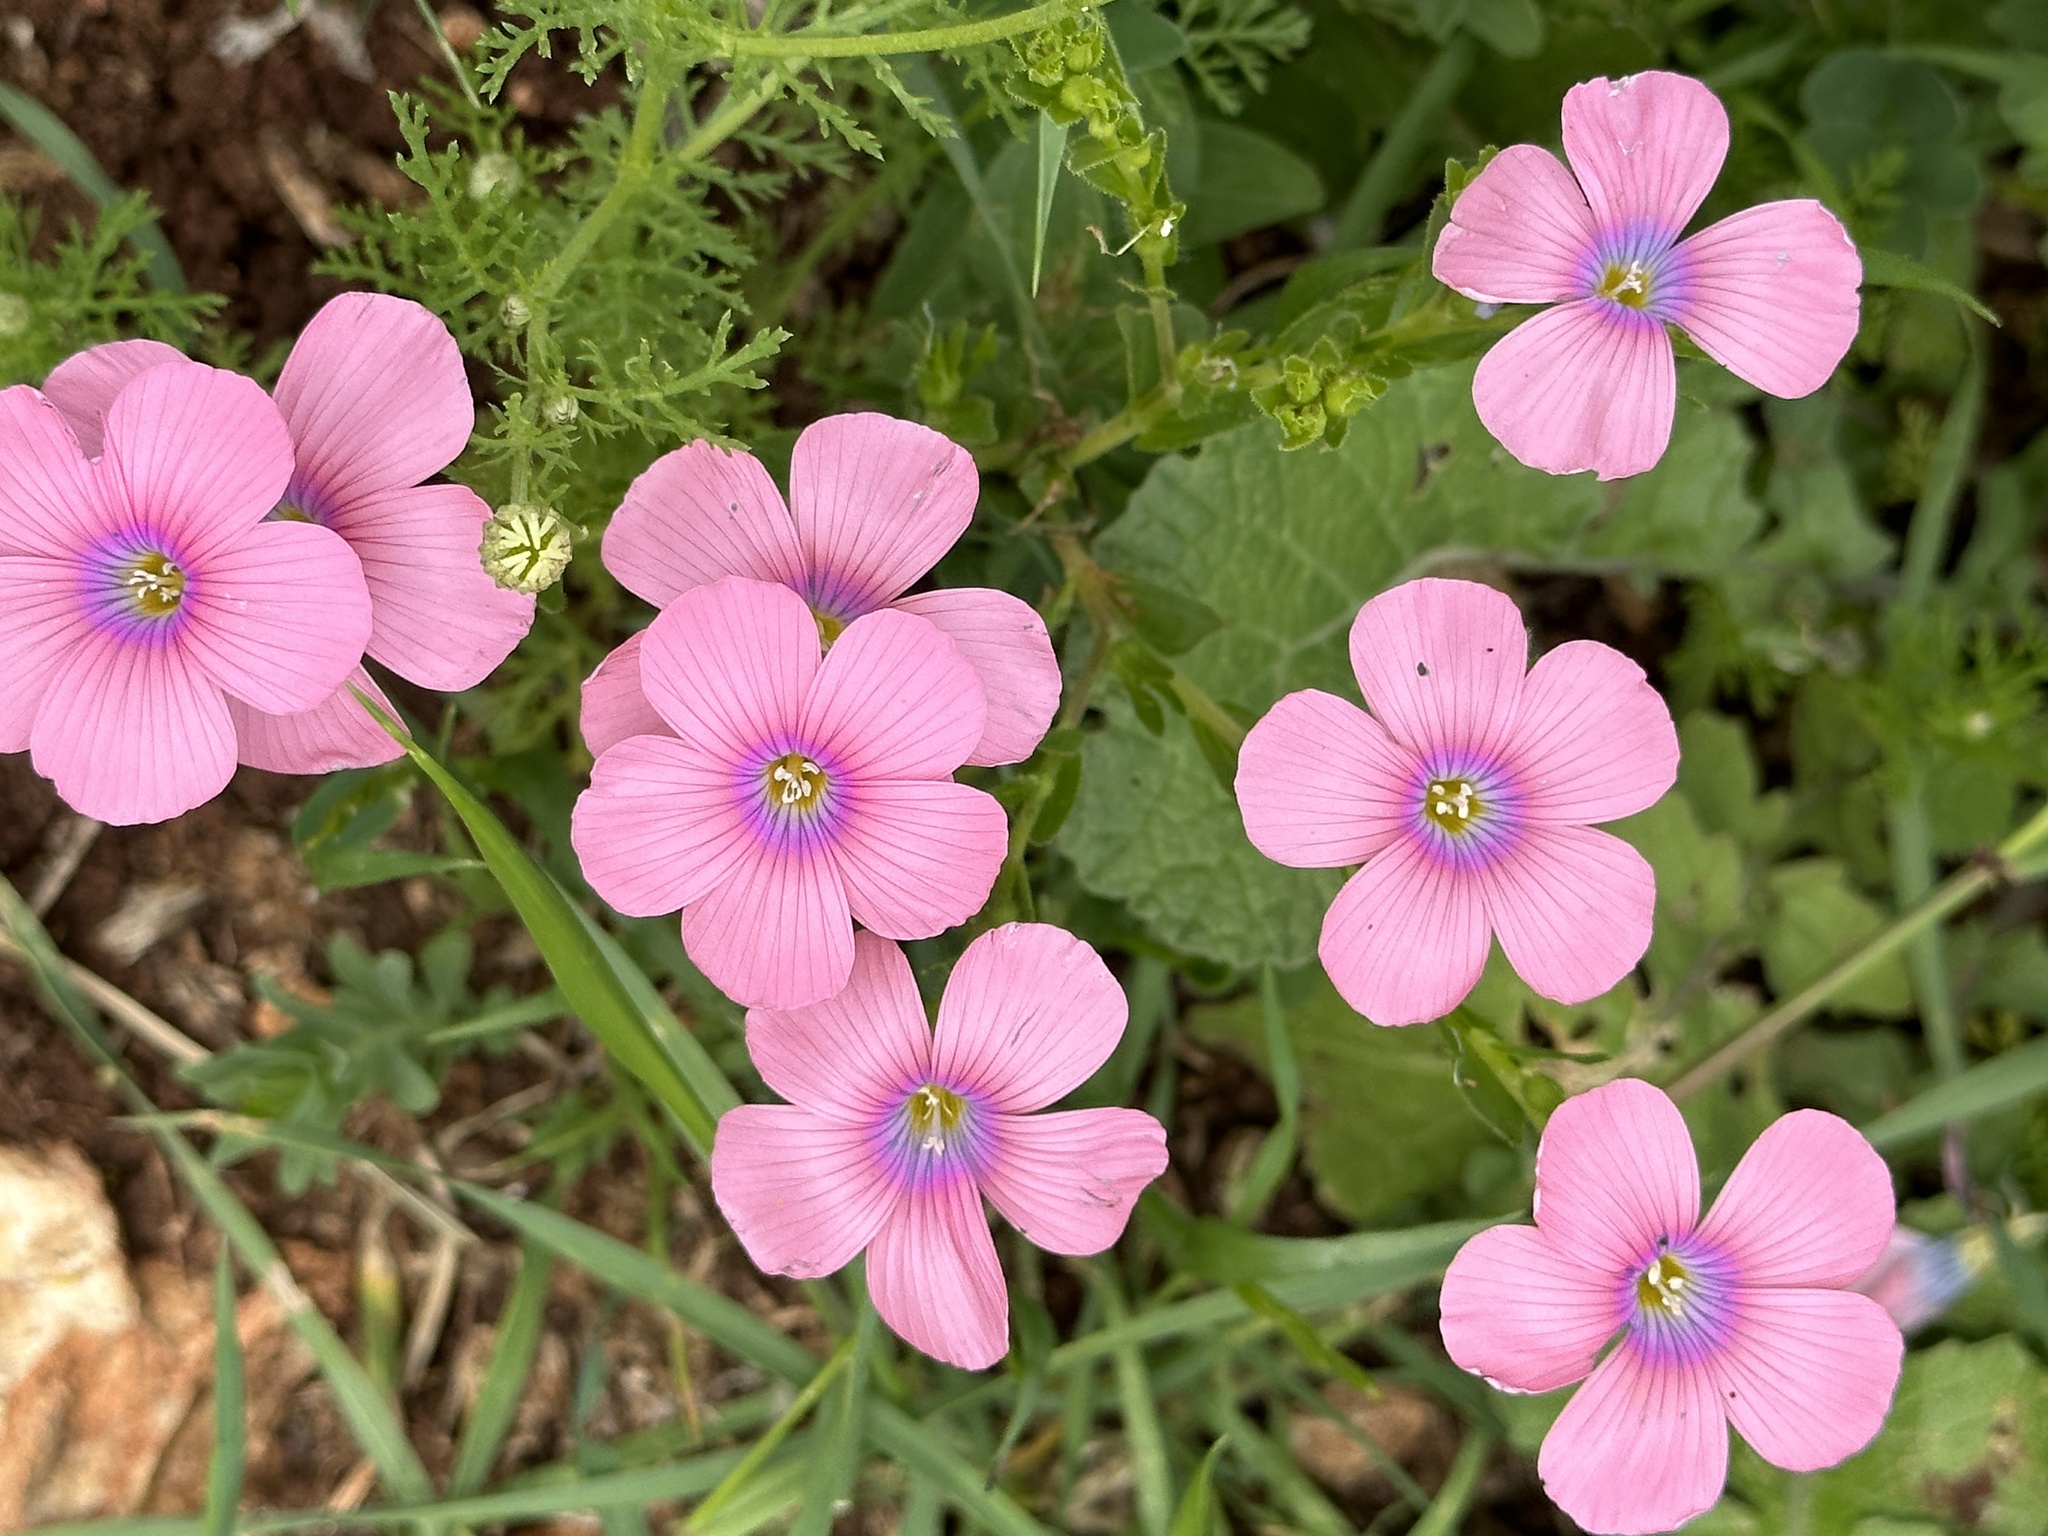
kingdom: Plantae
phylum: Tracheophyta
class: Magnoliopsida
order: Malpighiales
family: Linaceae
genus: Linum
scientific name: Linum pubescens
